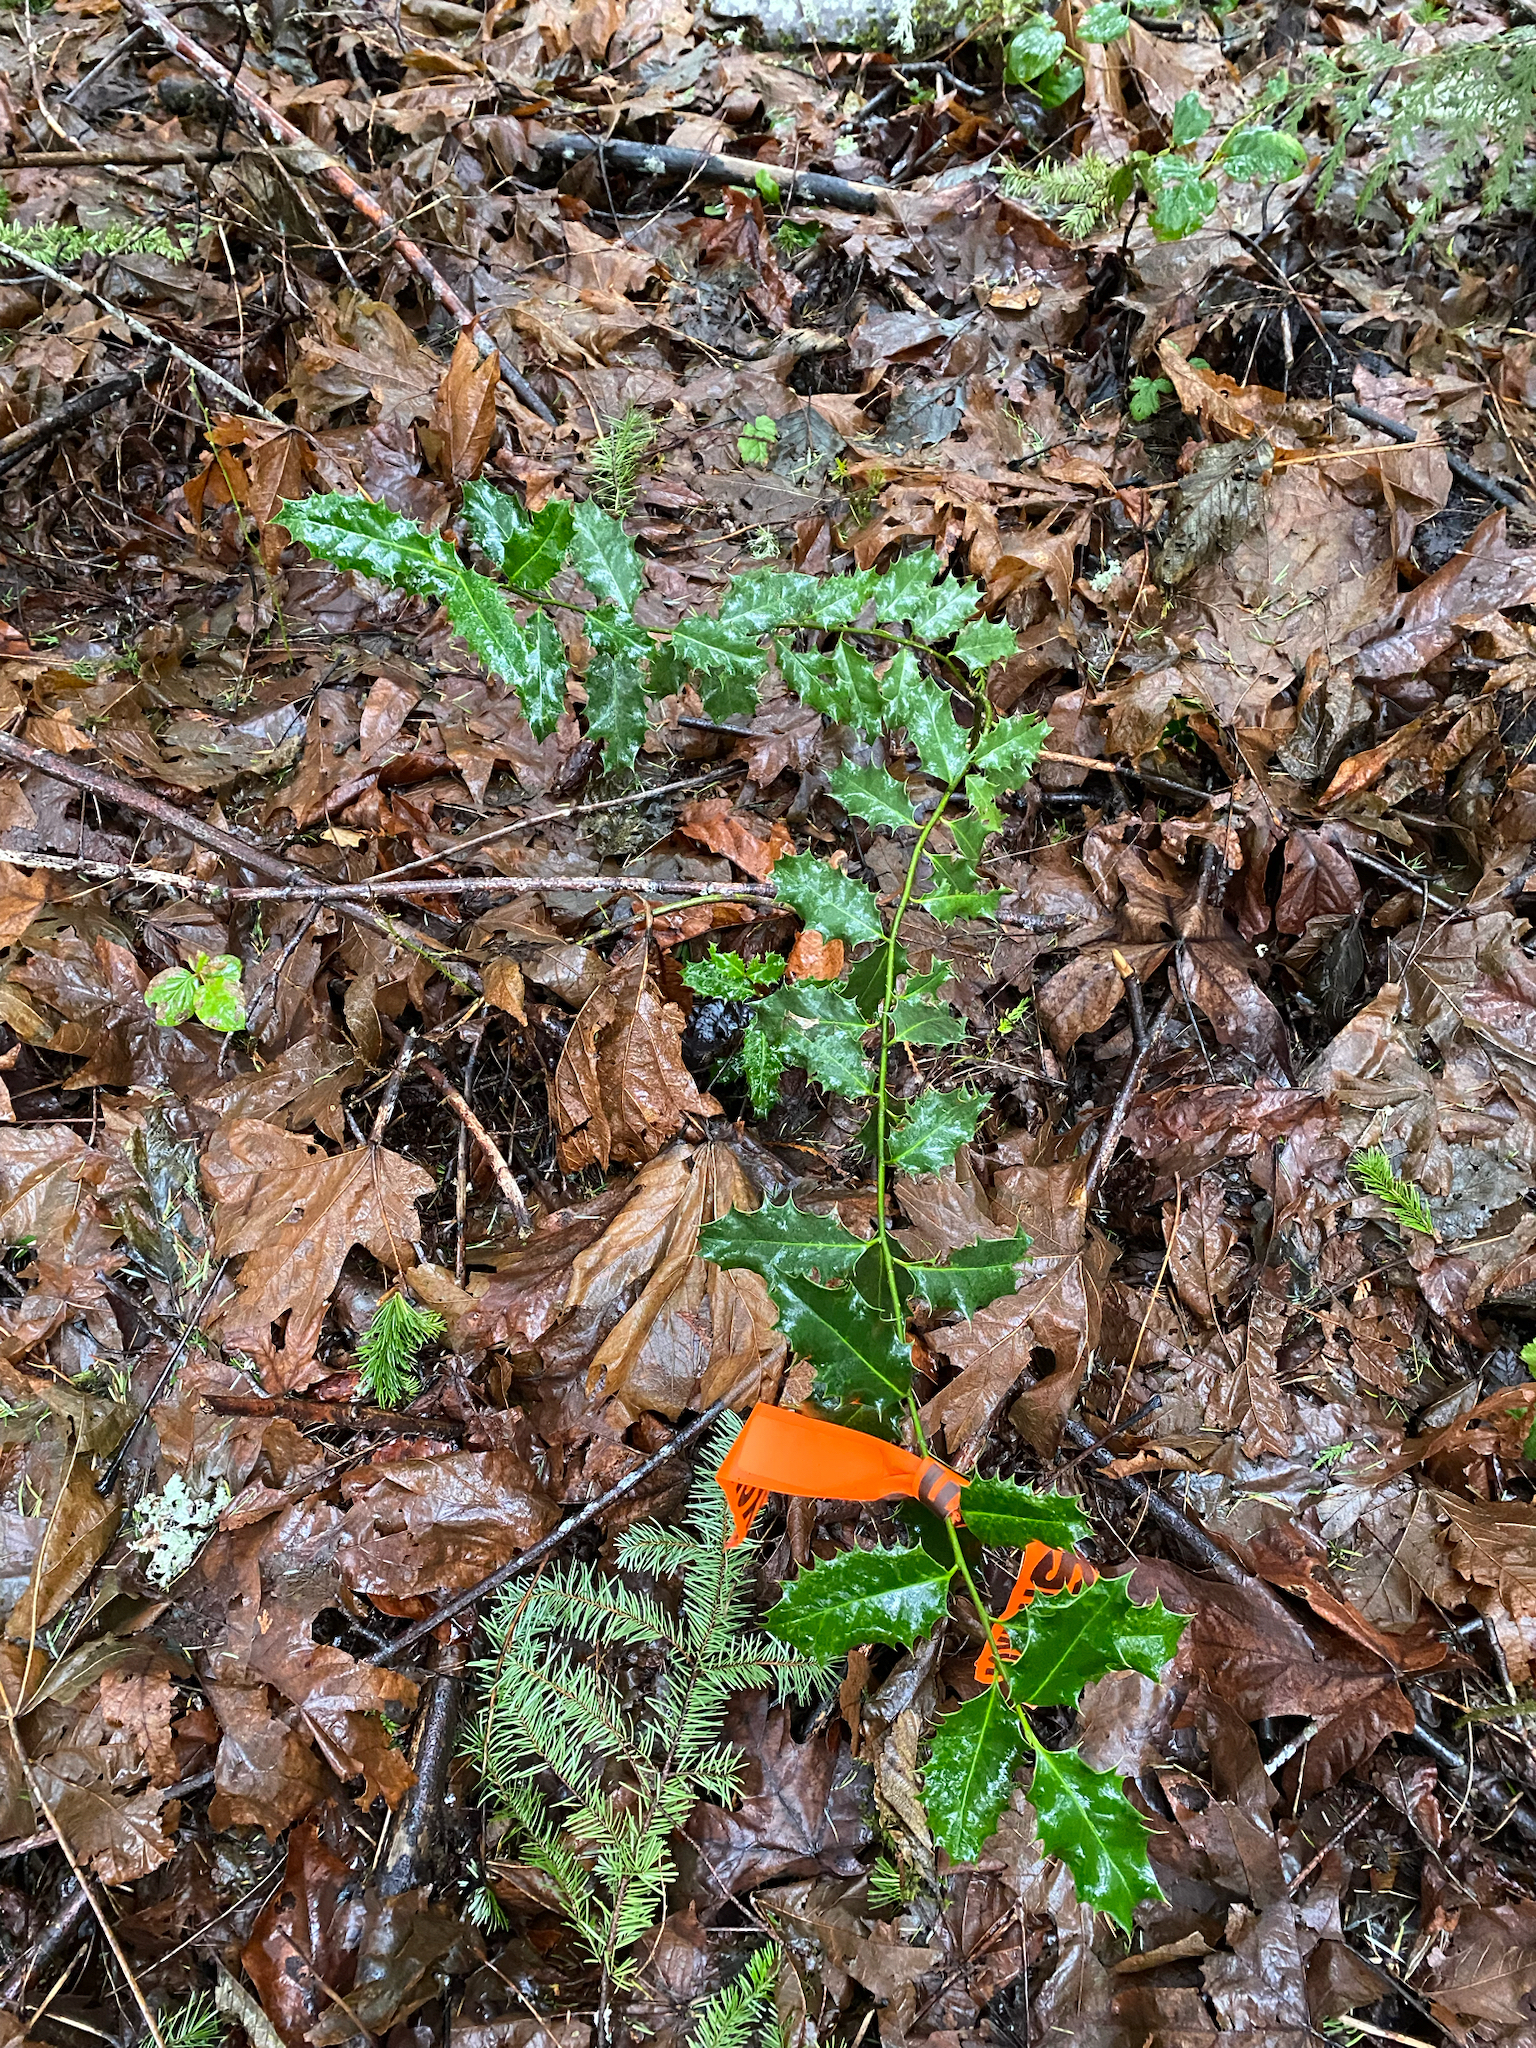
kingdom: Plantae
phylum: Tracheophyta
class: Magnoliopsida
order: Aquifoliales
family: Aquifoliaceae
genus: Ilex
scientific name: Ilex aquifolium
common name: English holly
